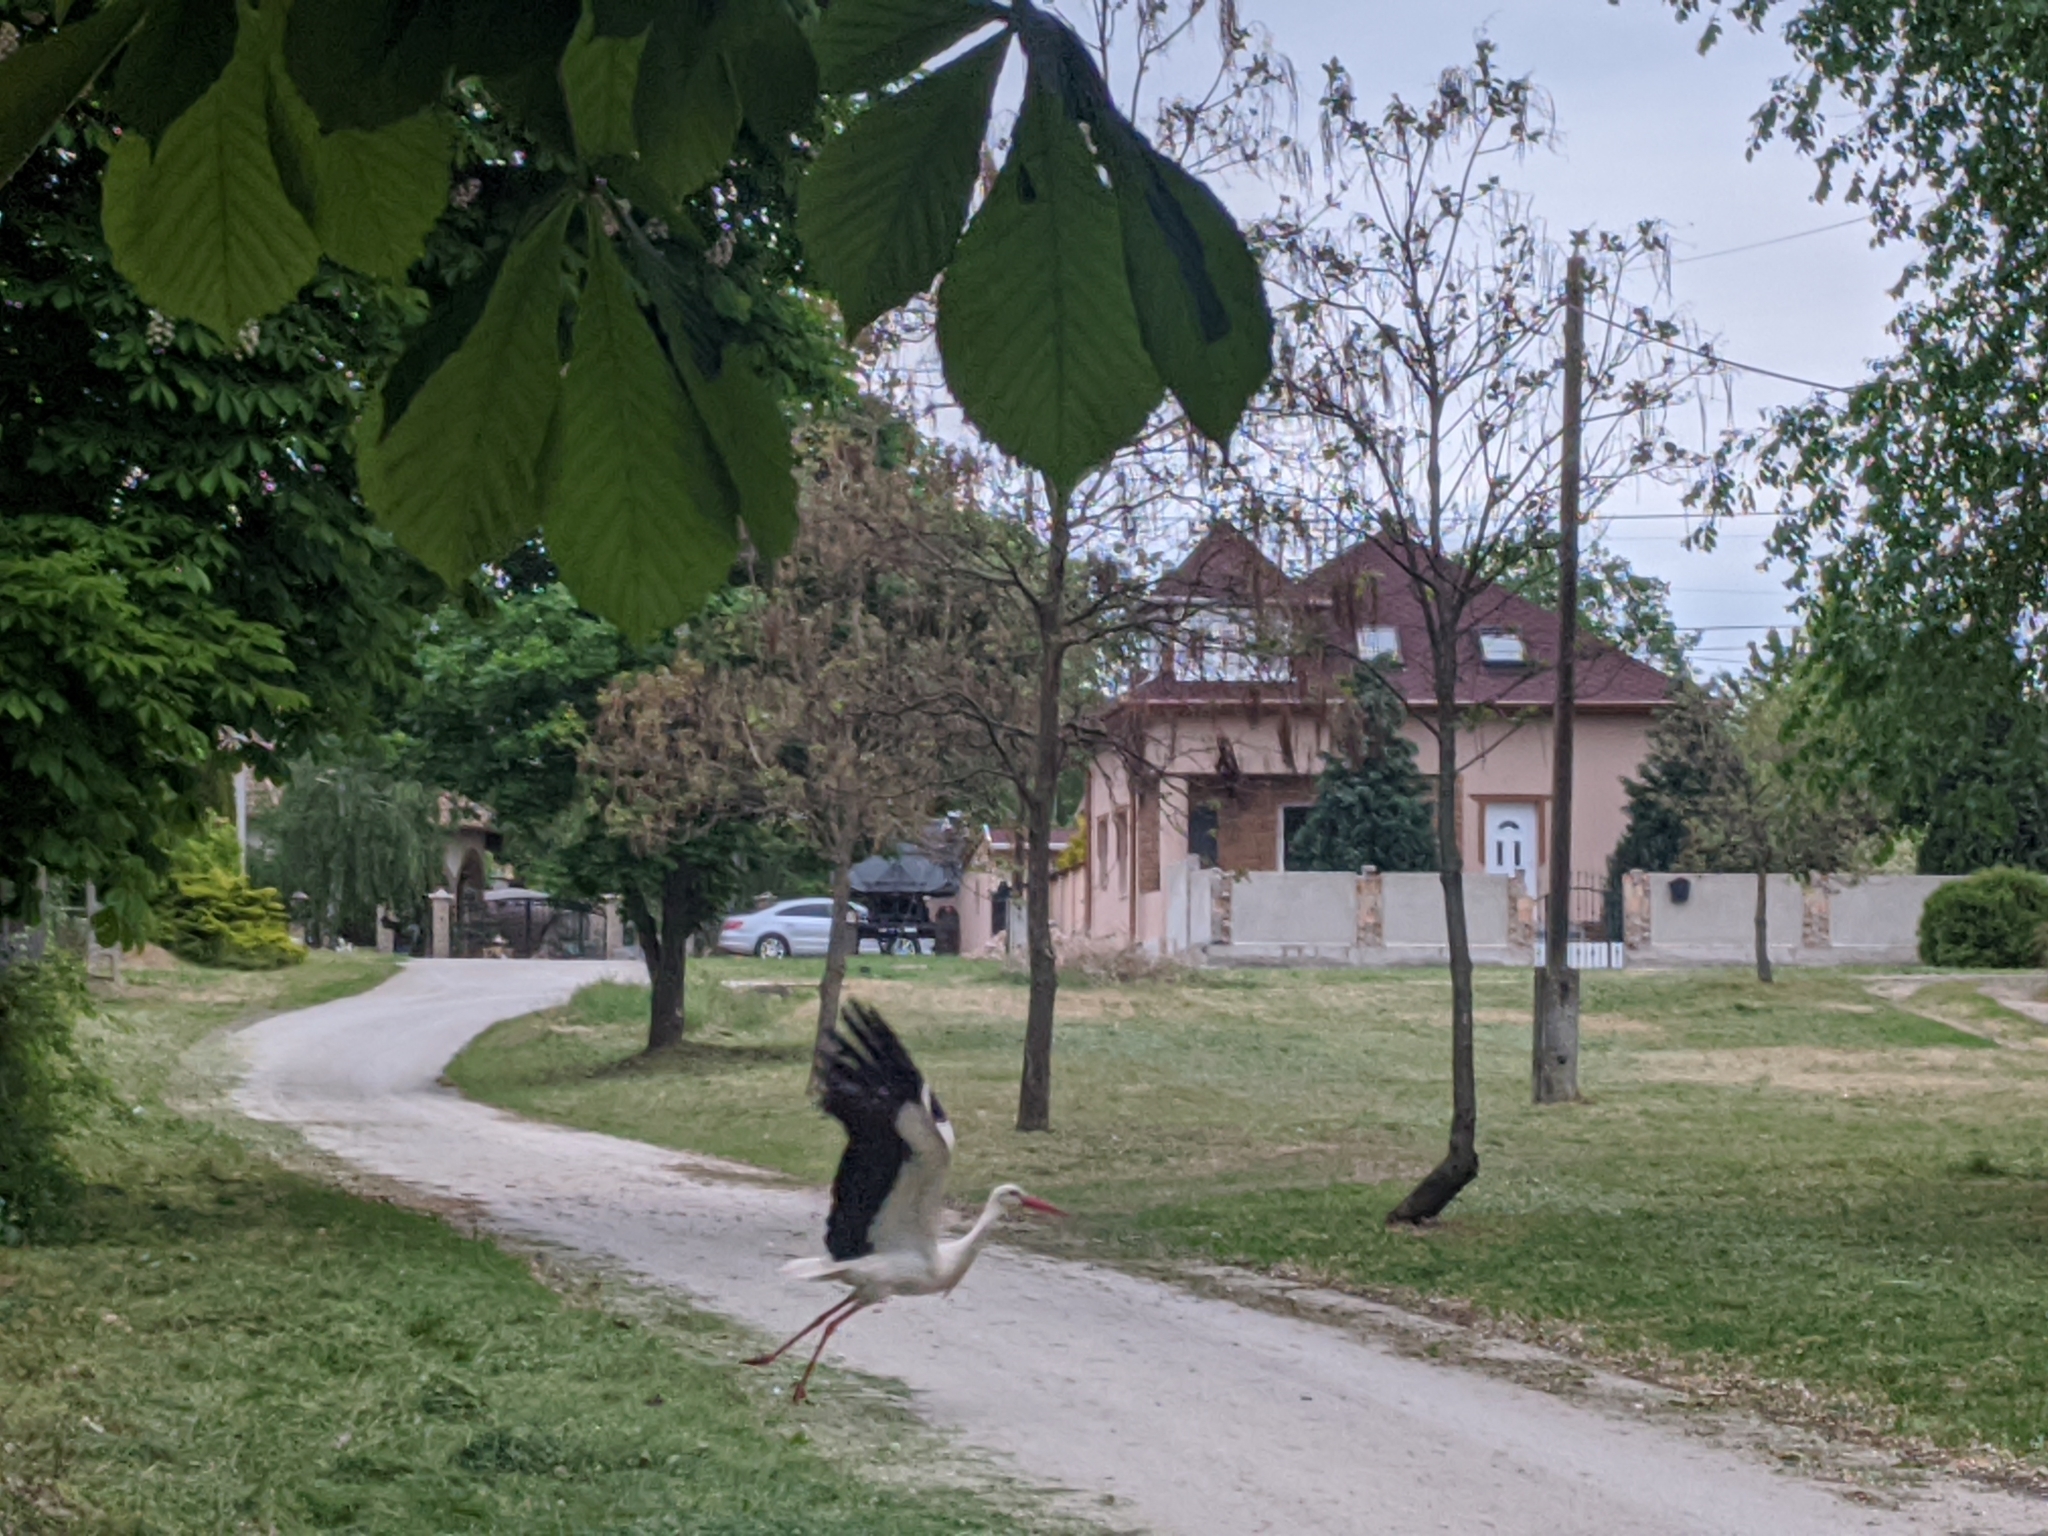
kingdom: Animalia
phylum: Chordata
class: Aves
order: Ciconiiformes
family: Ciconiidae
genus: Ciconia
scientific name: Ciconia ciconia
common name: White stork
